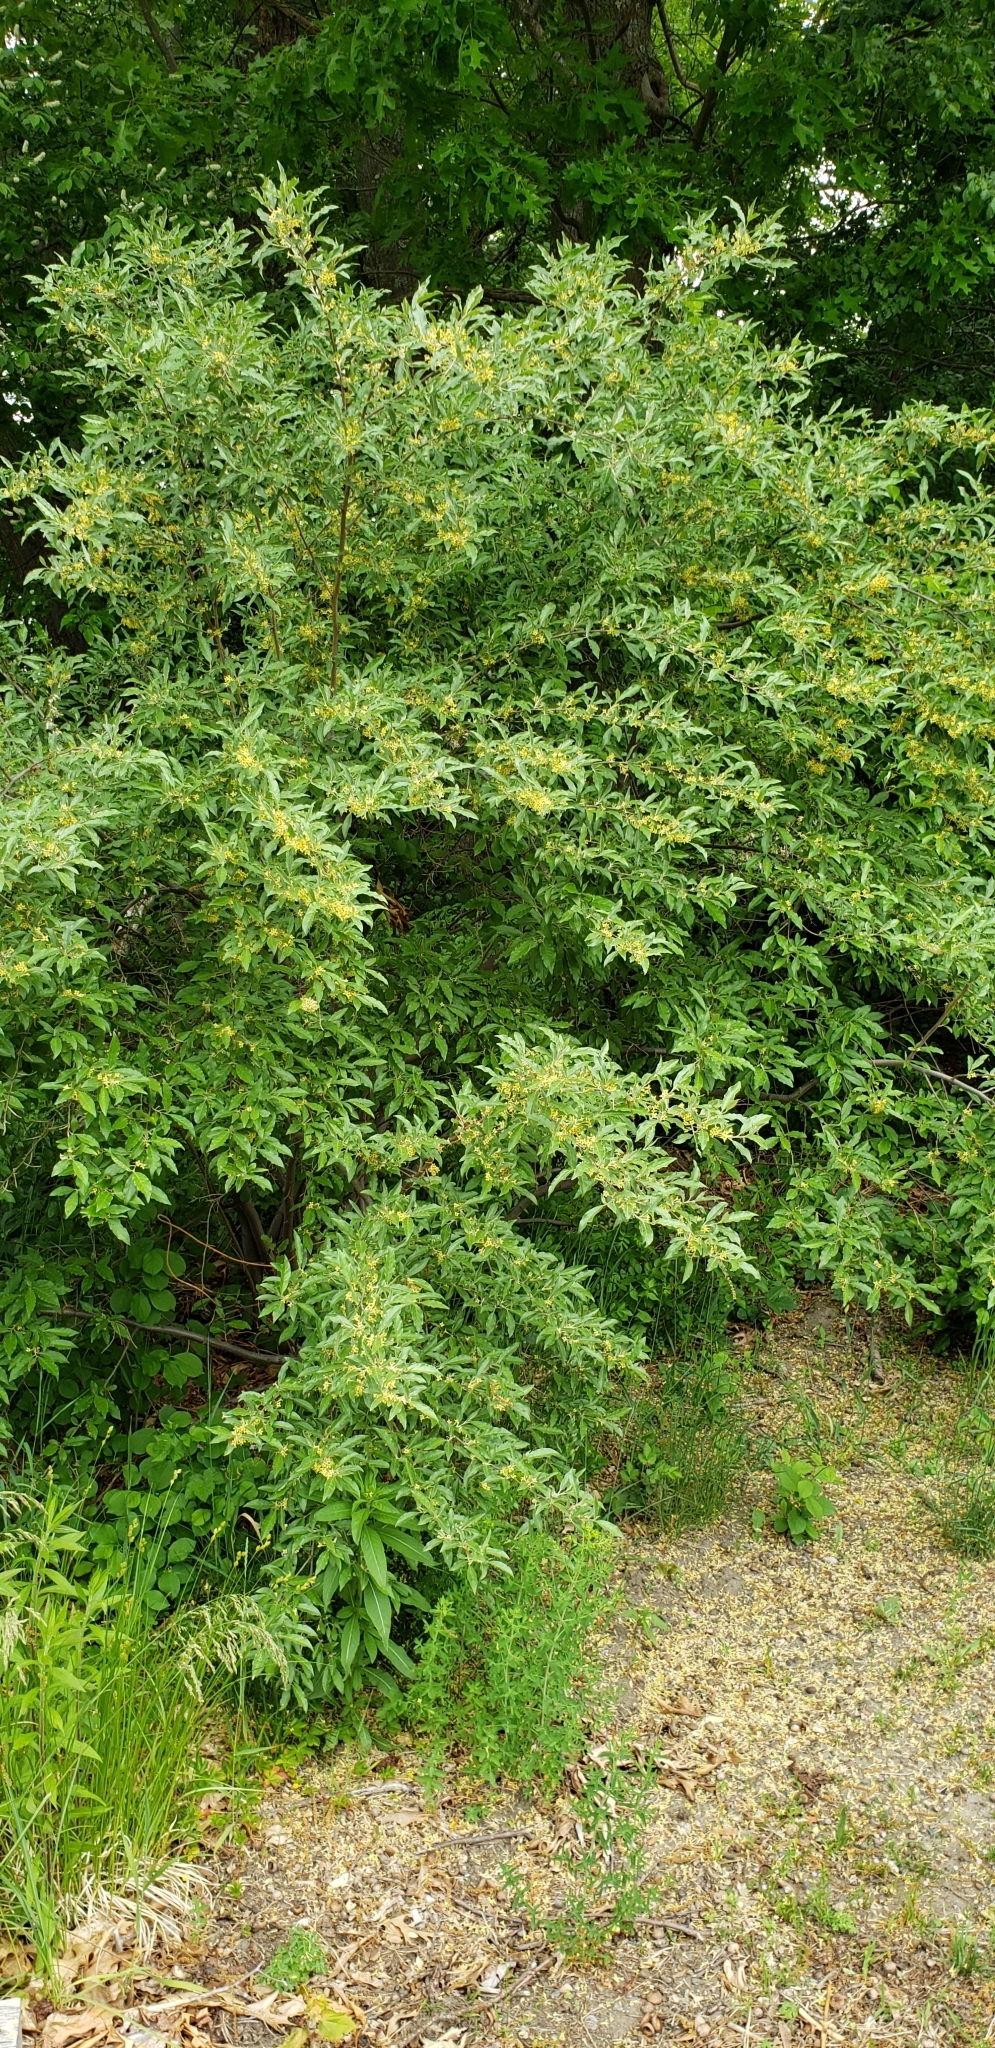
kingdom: Plantae
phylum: Tracheophyta
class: Magnoliopsida
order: Rosales
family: Elaeagnaceae
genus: Elaeagnus
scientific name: Elaeagnus umbellata
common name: Autumn olive
